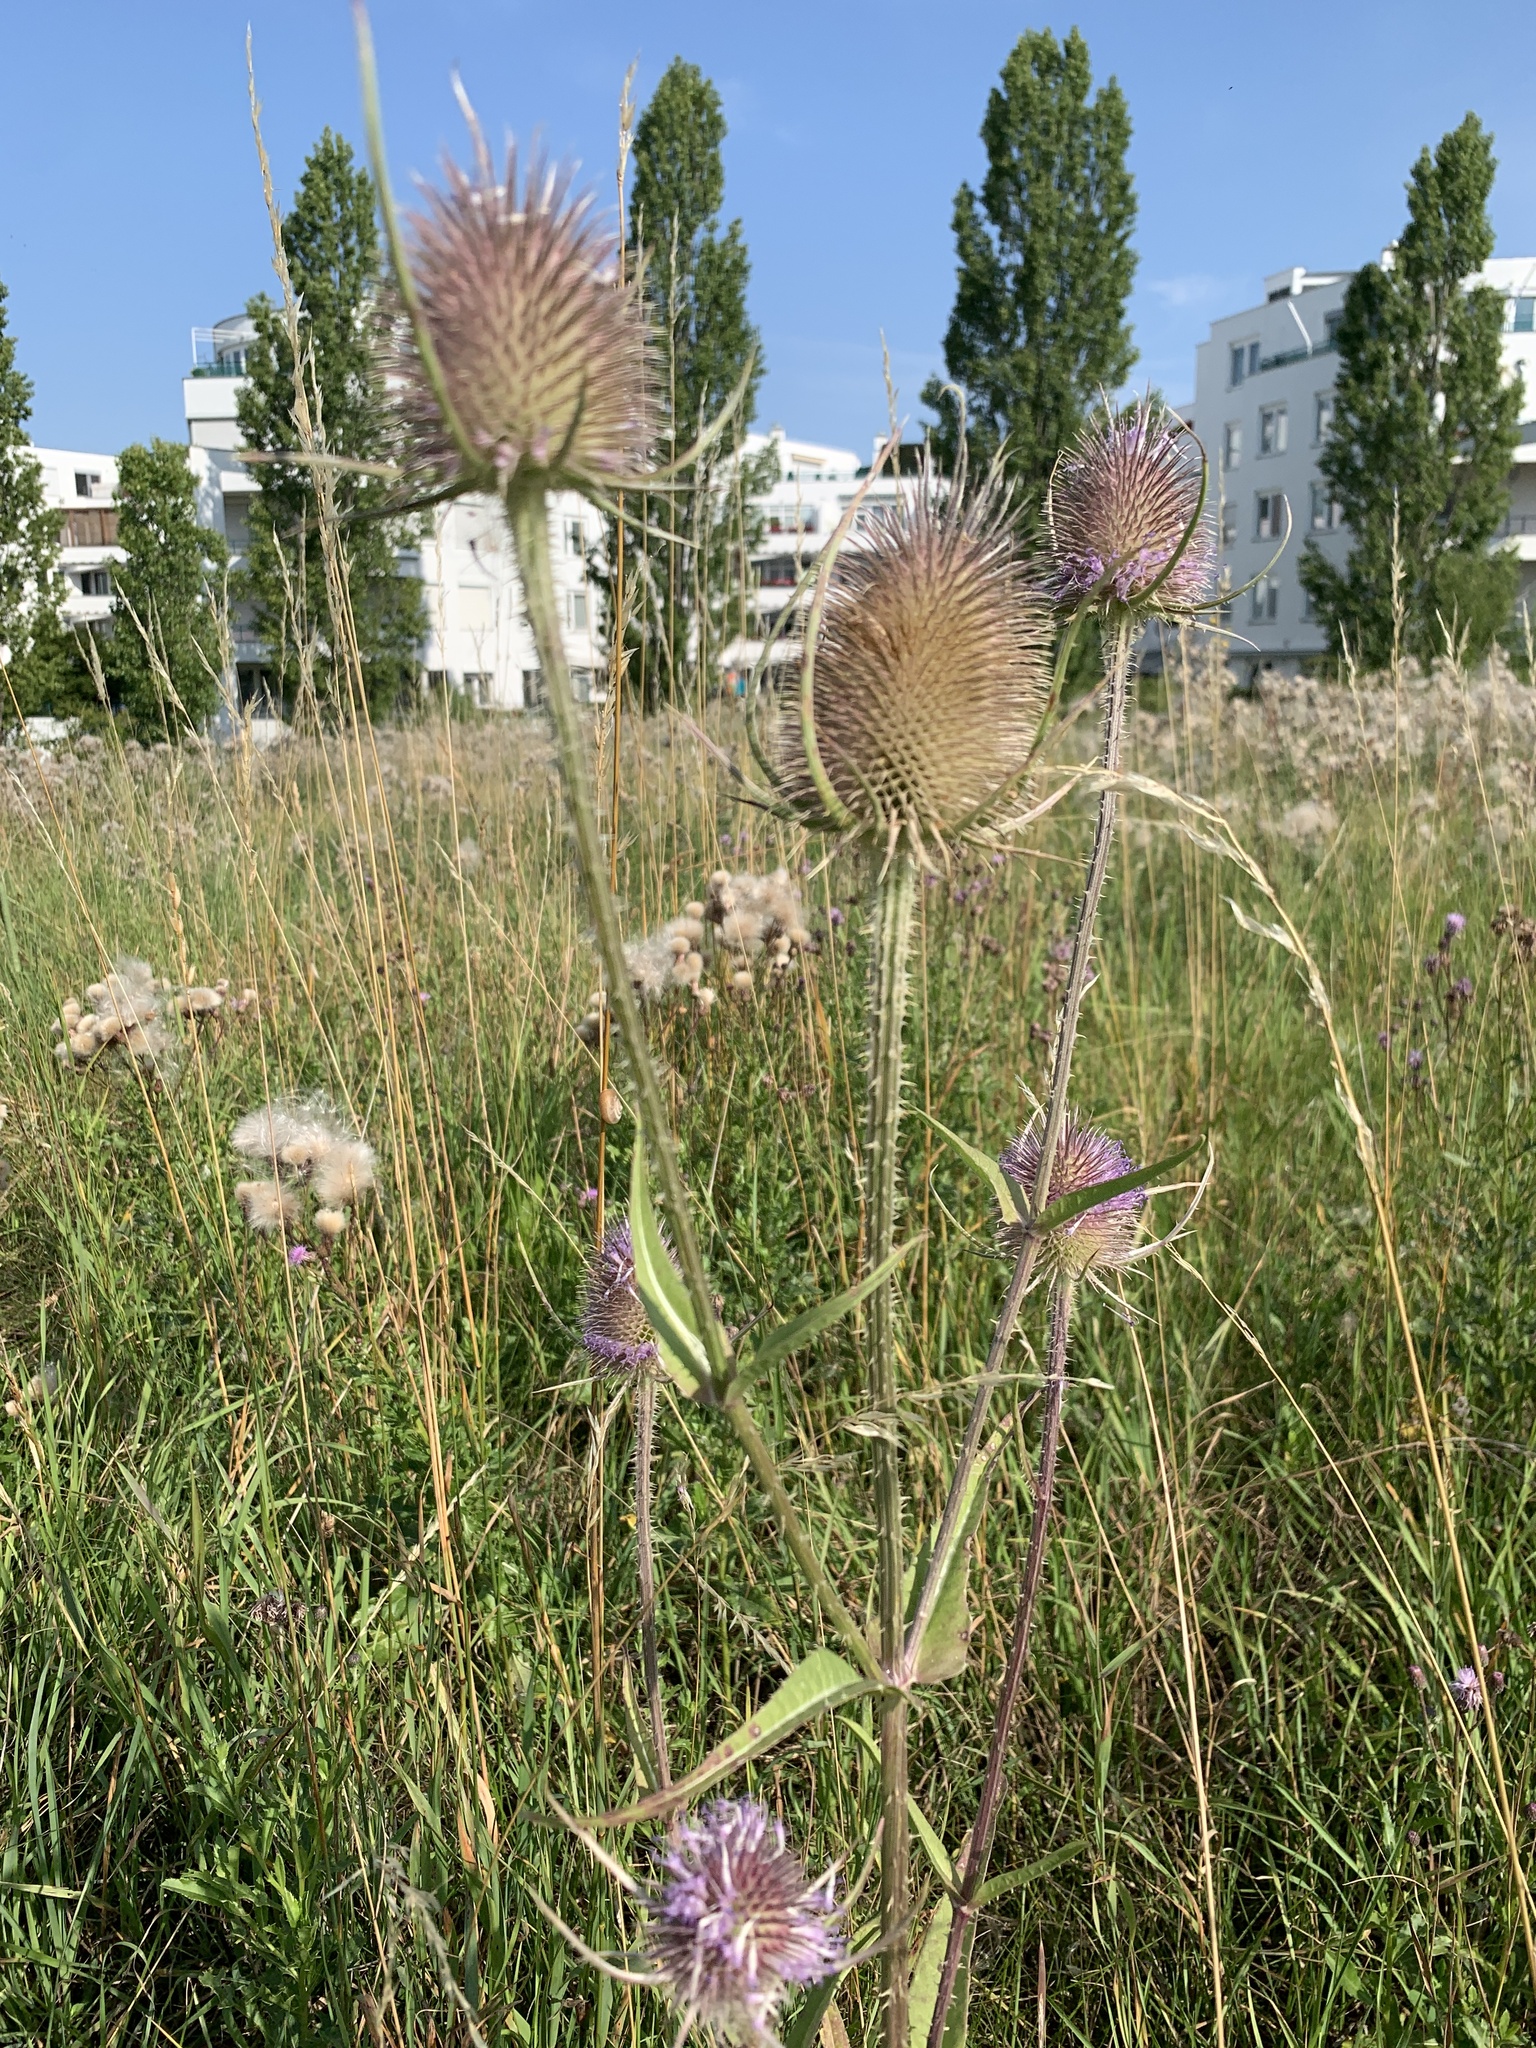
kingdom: Plantae
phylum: Tracheophyta
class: Magnoliopsida
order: Dipsacales
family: Caprifoliaceae
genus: Dipsacus
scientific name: Dipsacus fullonum
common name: Teasel
